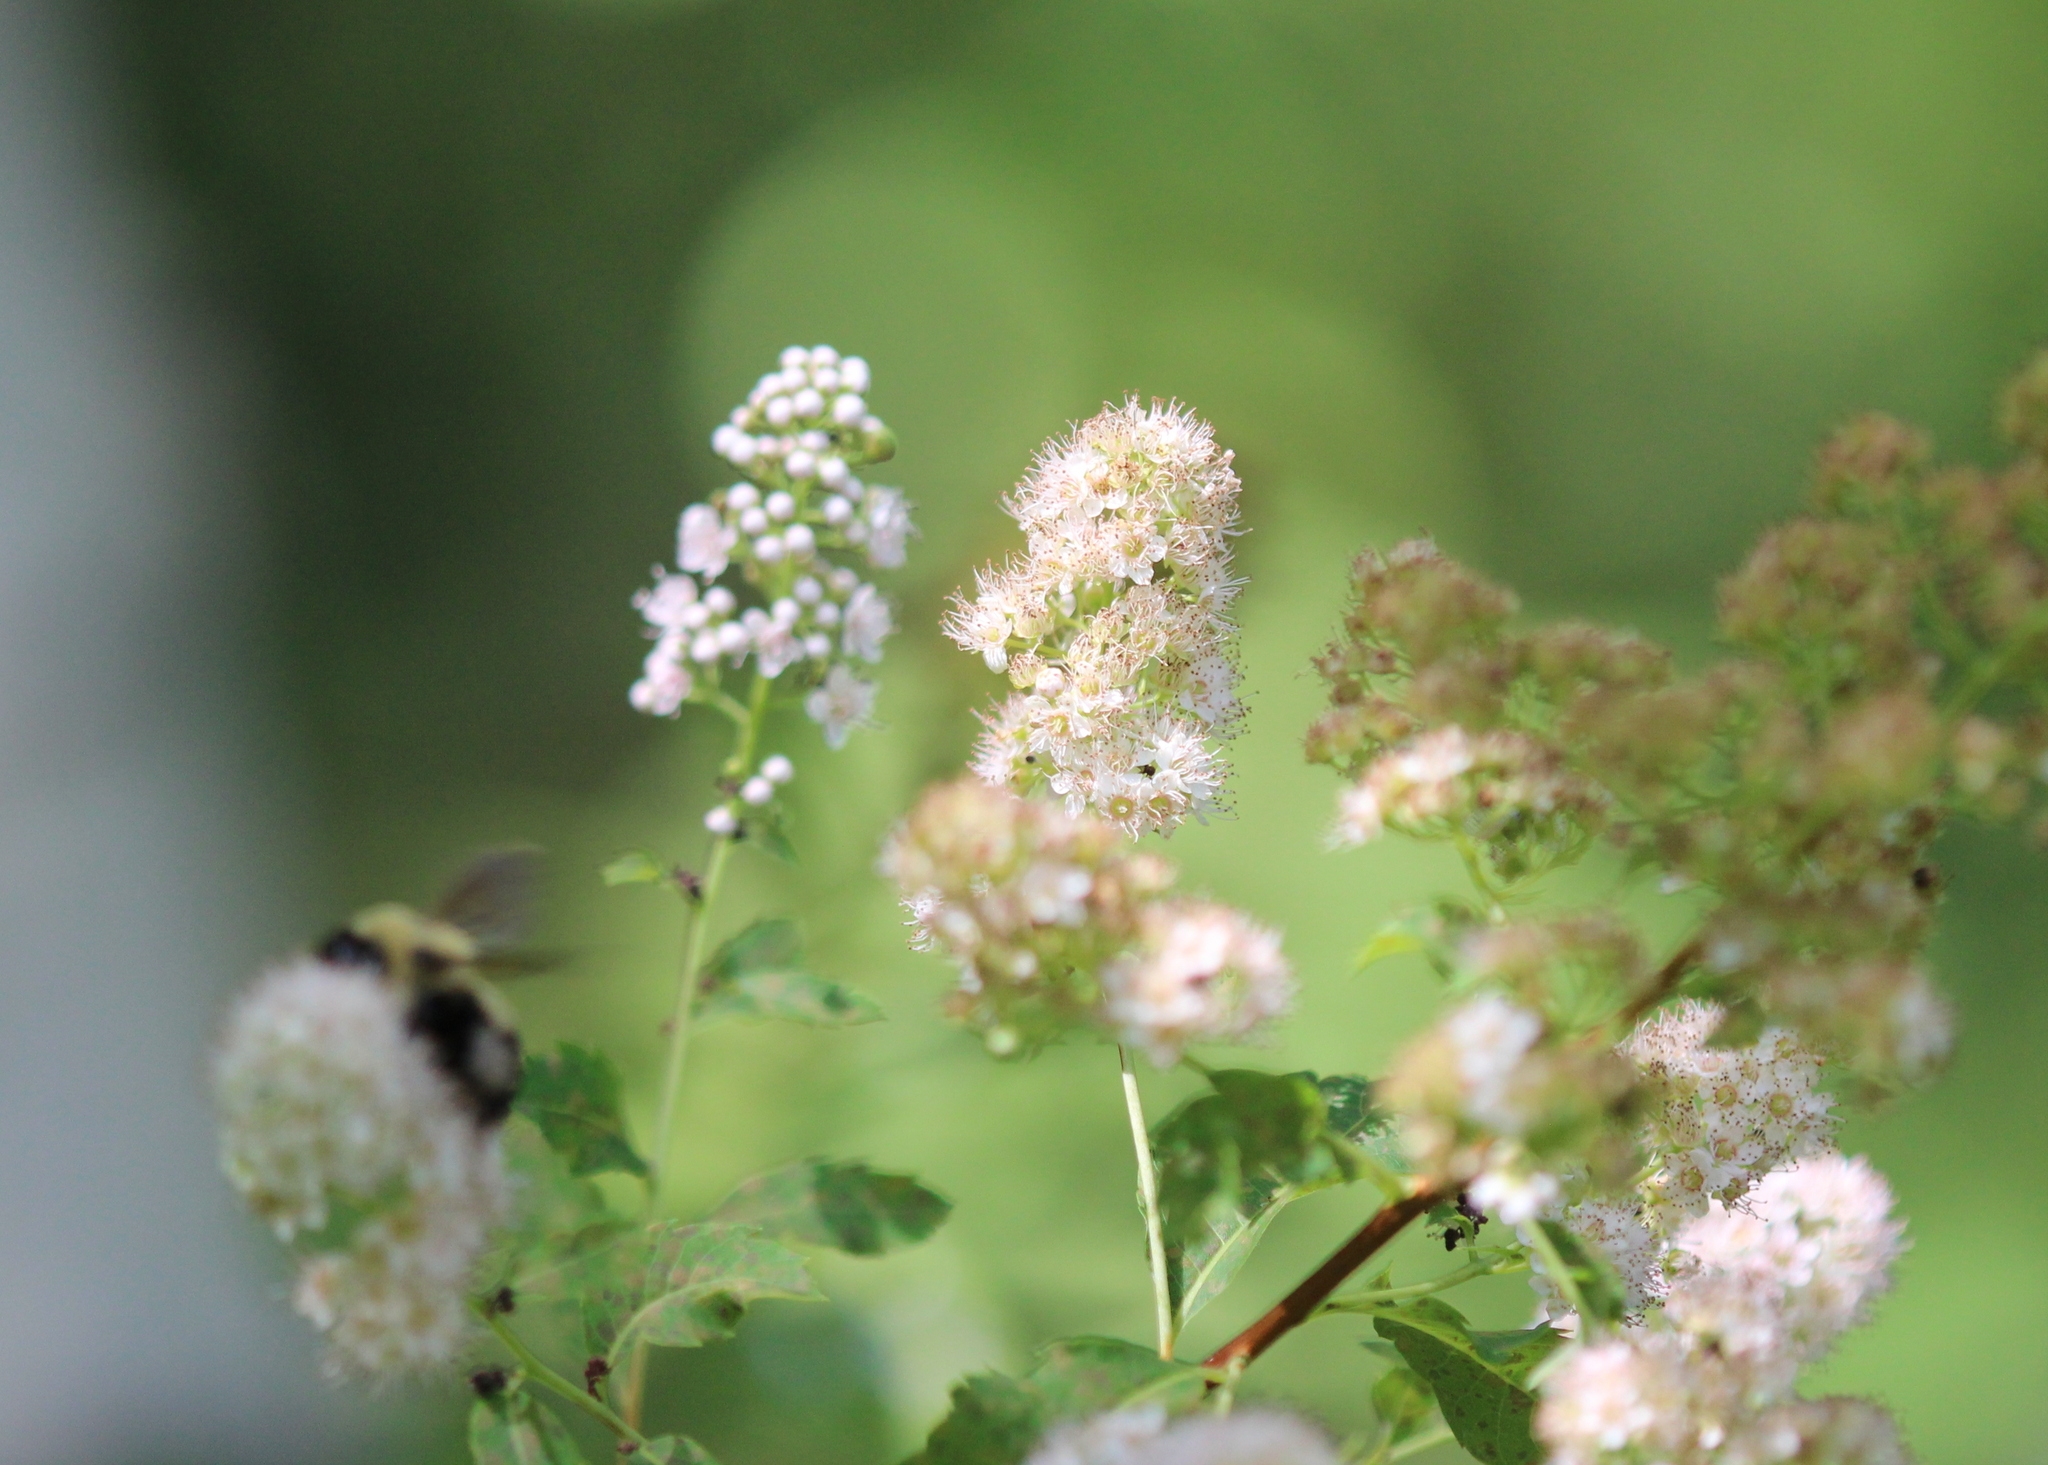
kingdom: Plantae
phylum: Tracheophyta
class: Magnoliopsida
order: Rosales
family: Rosaceae
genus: Spiraea
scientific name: Spiraea alba
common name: Pale bridewort
